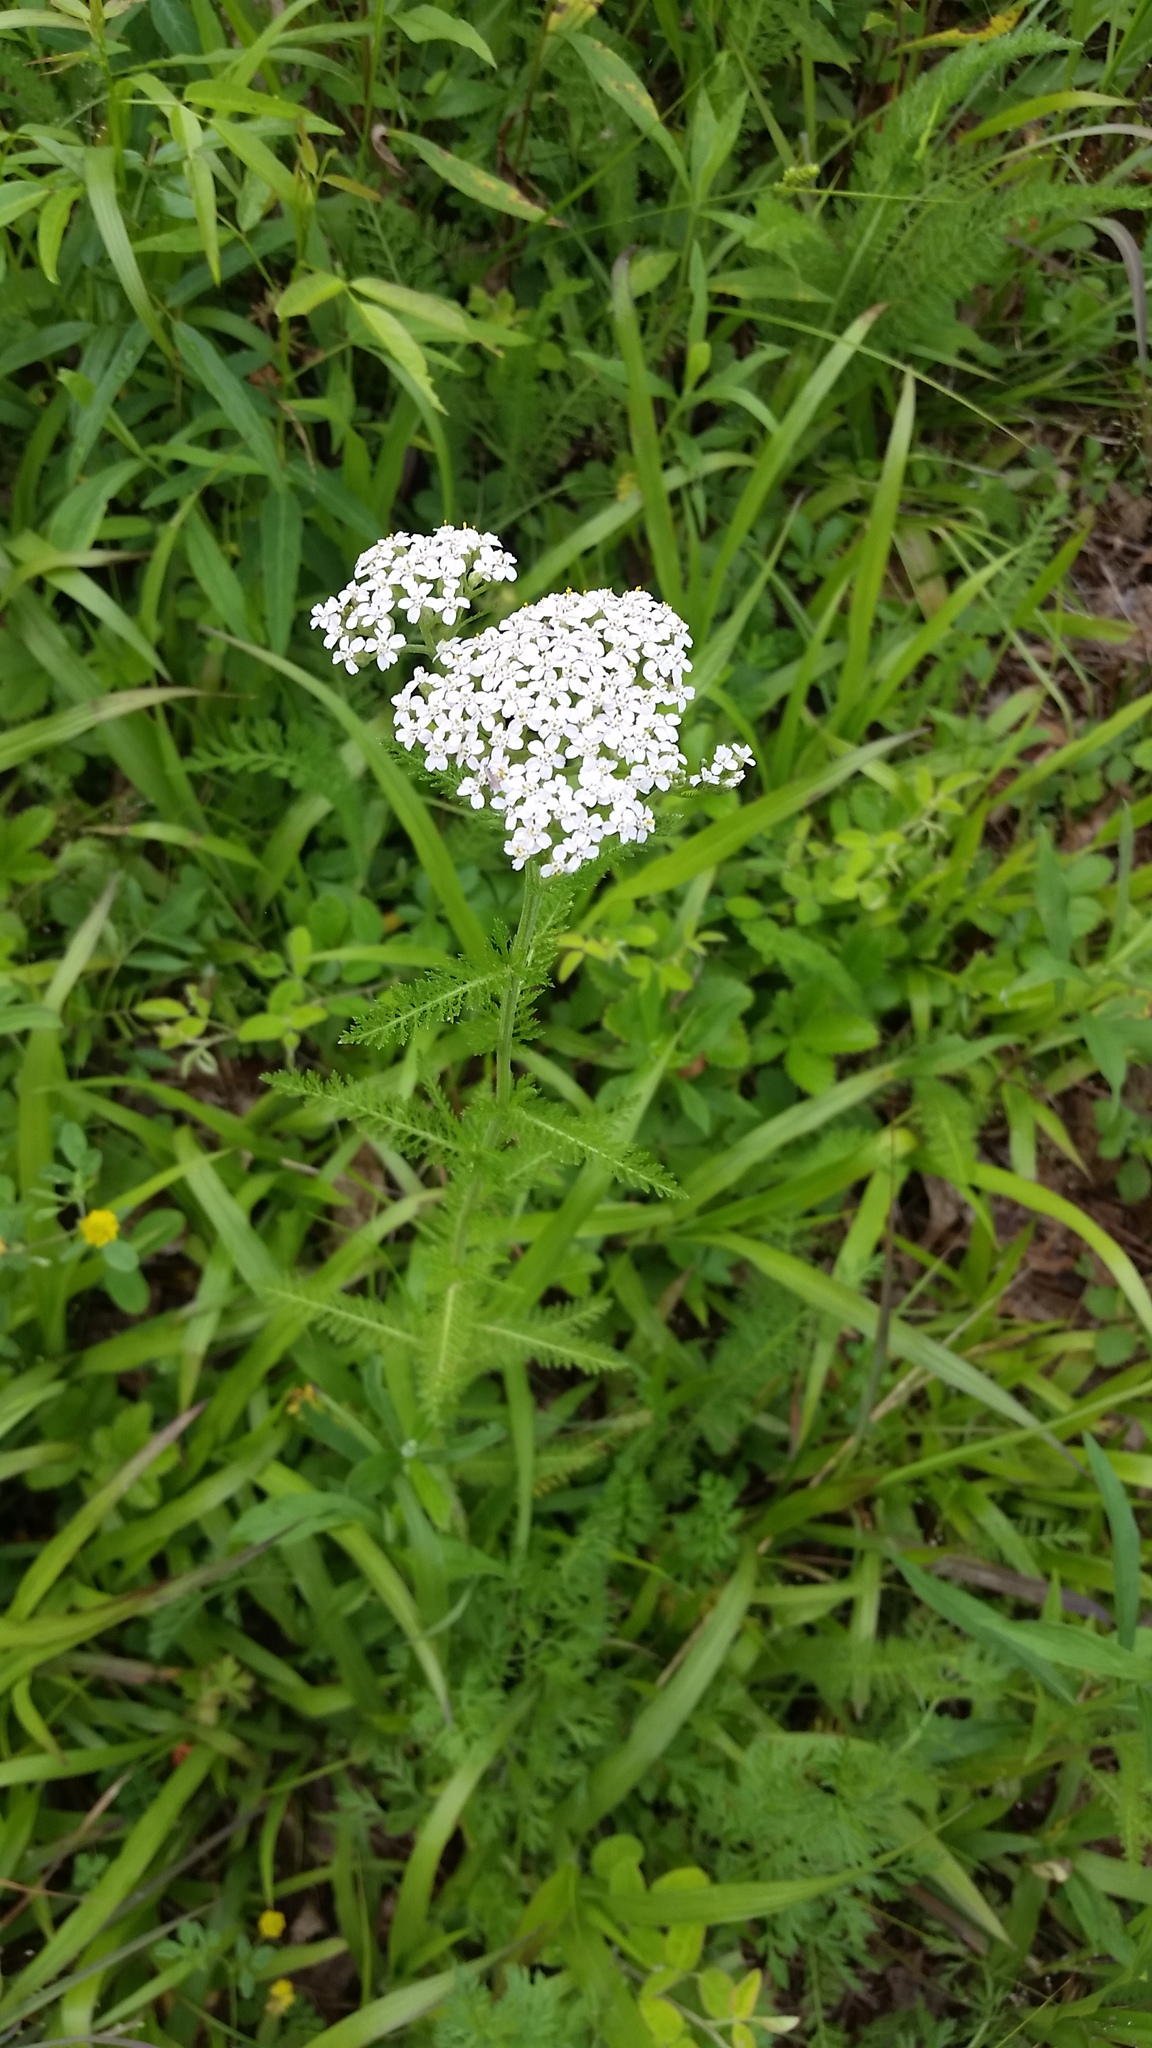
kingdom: Plantae
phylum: Tracheophyta
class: Magnoliopsida
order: Asterales
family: Asteraceae
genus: Achillea
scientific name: Achillea millefolium
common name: Yarrow
